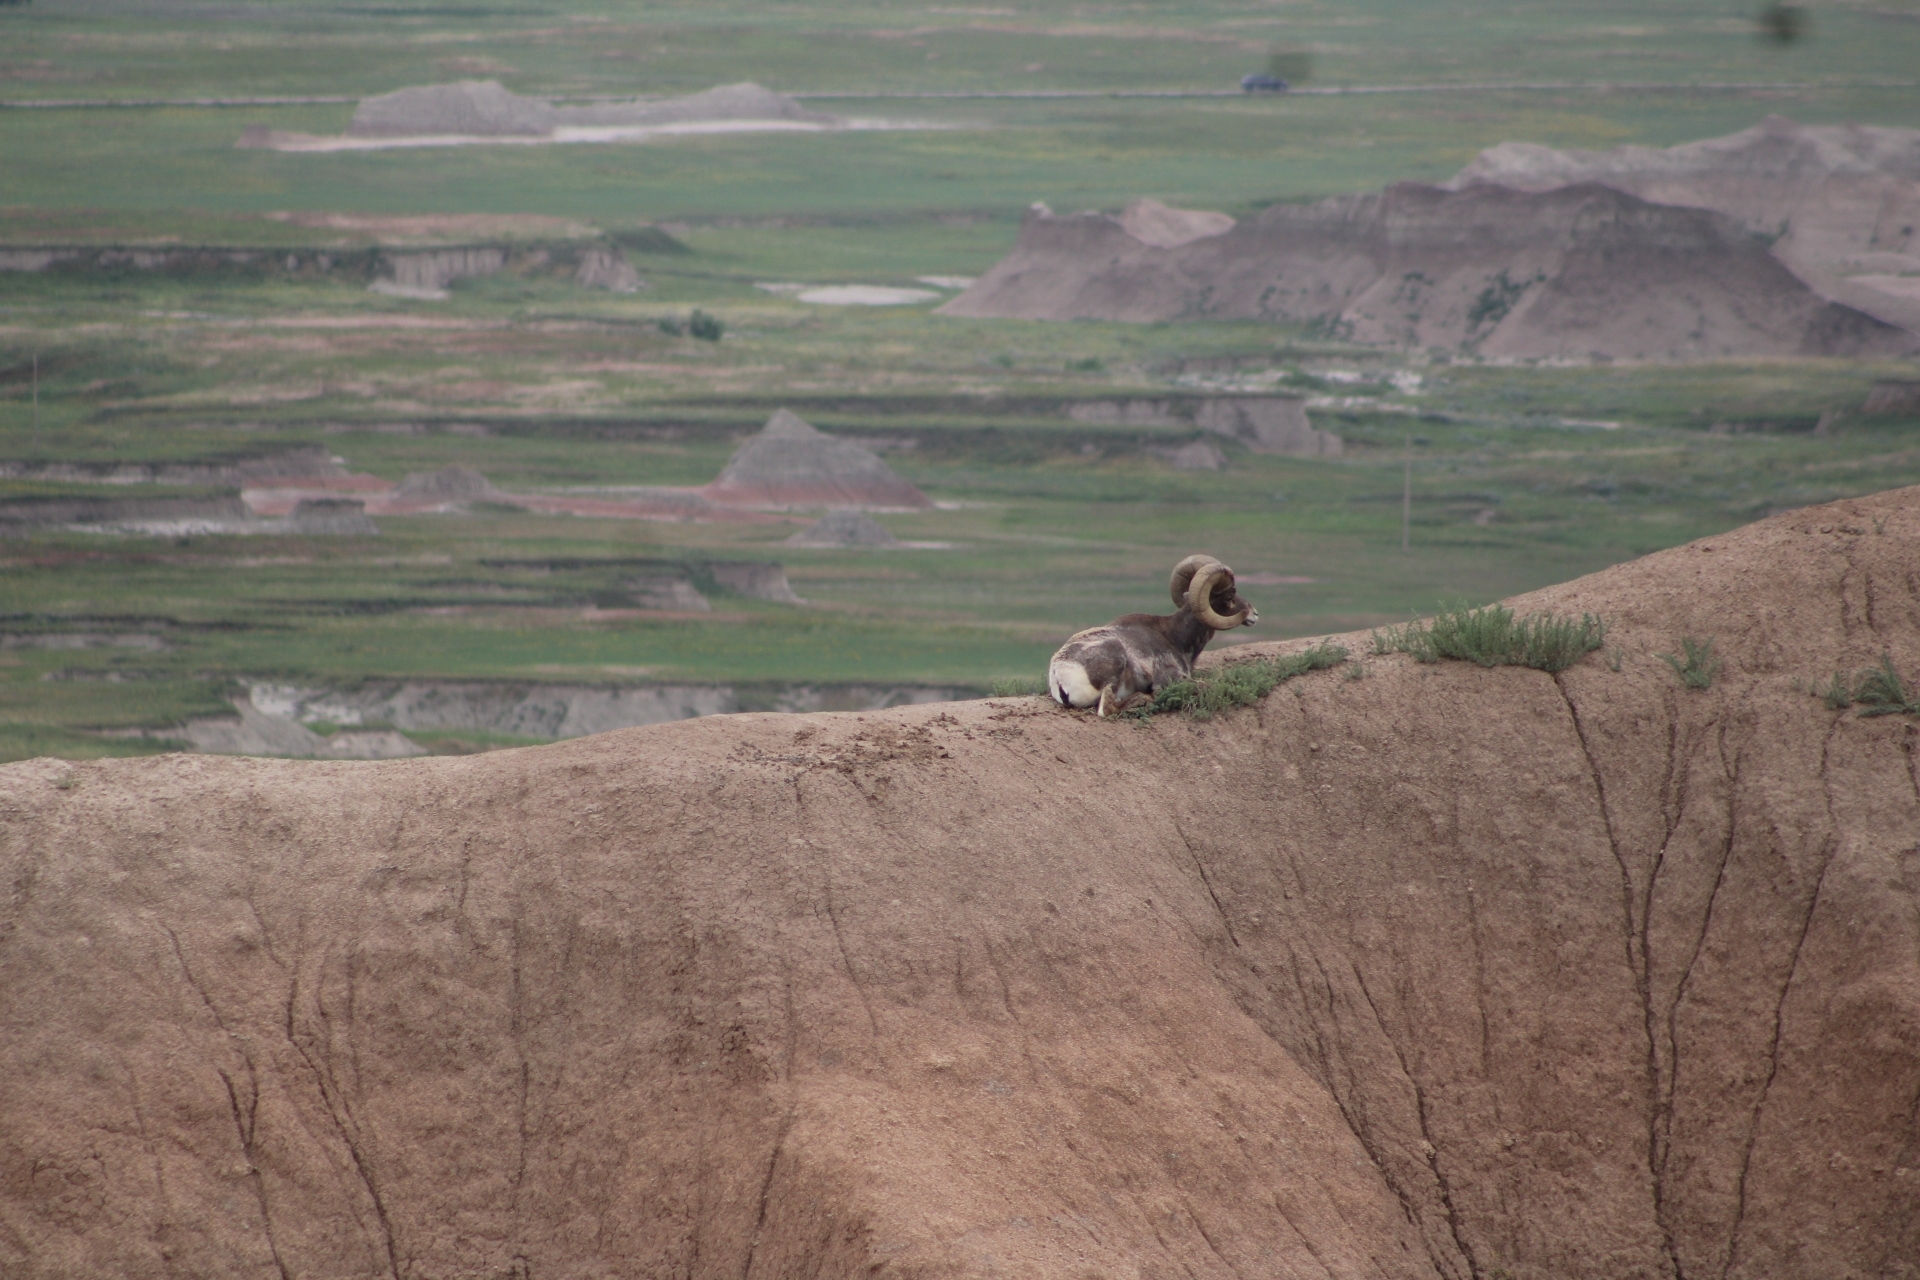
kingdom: Animalia
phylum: Chordata
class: Mammalia
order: Artiodactyla
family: Bovidae
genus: Ovis
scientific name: Ovis canadensis
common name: Bighorn sheep
